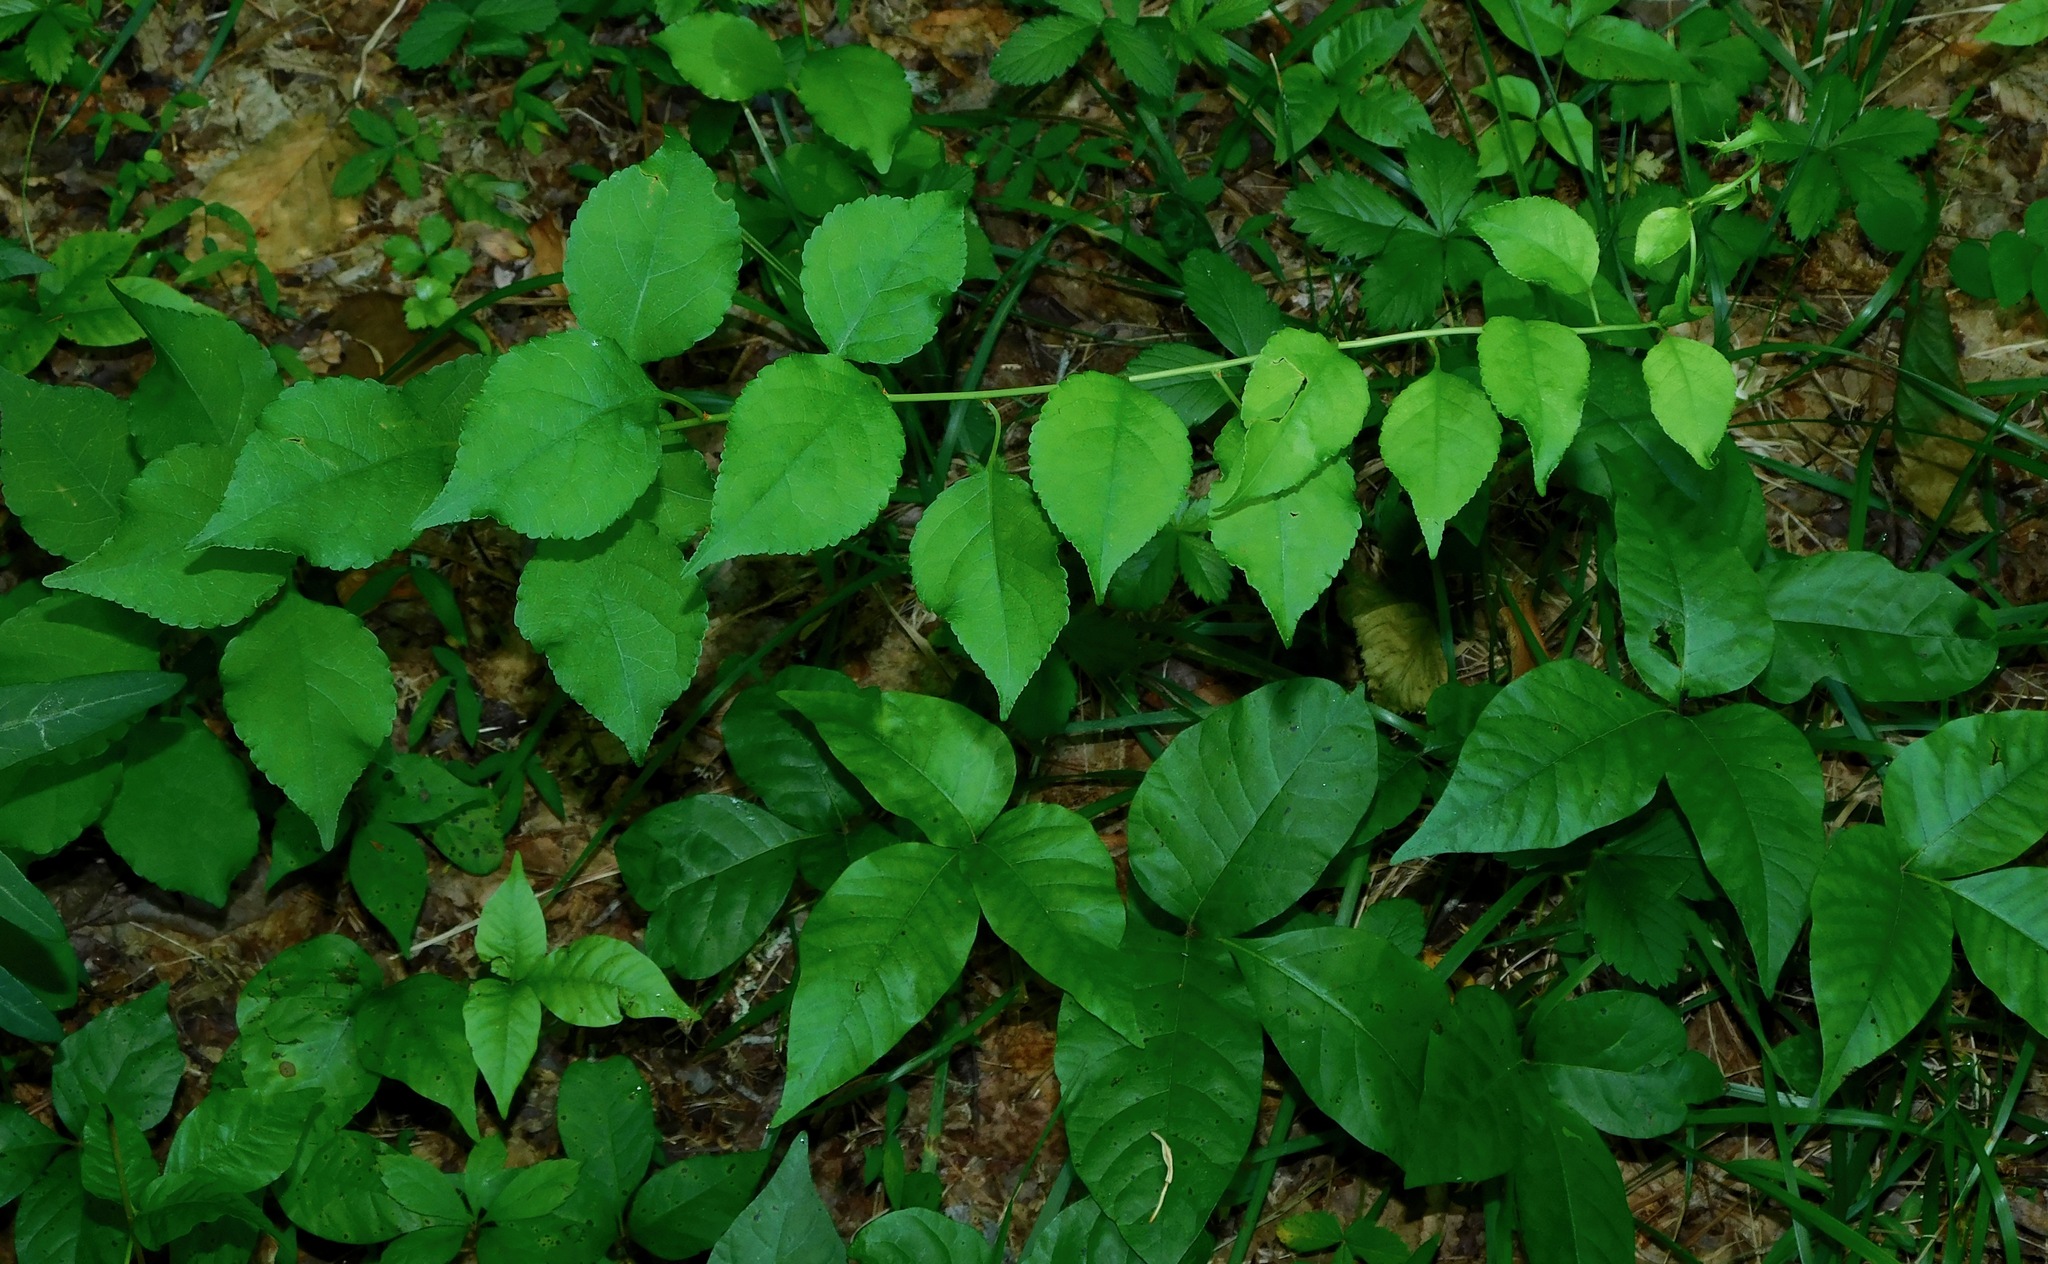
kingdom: Plantae
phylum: Tracheophyta
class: Magnoliopsida
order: Celastrales
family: Celastraceae
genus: Celastrus
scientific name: Celastrus orbiculatus
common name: Oriental bittersweet
